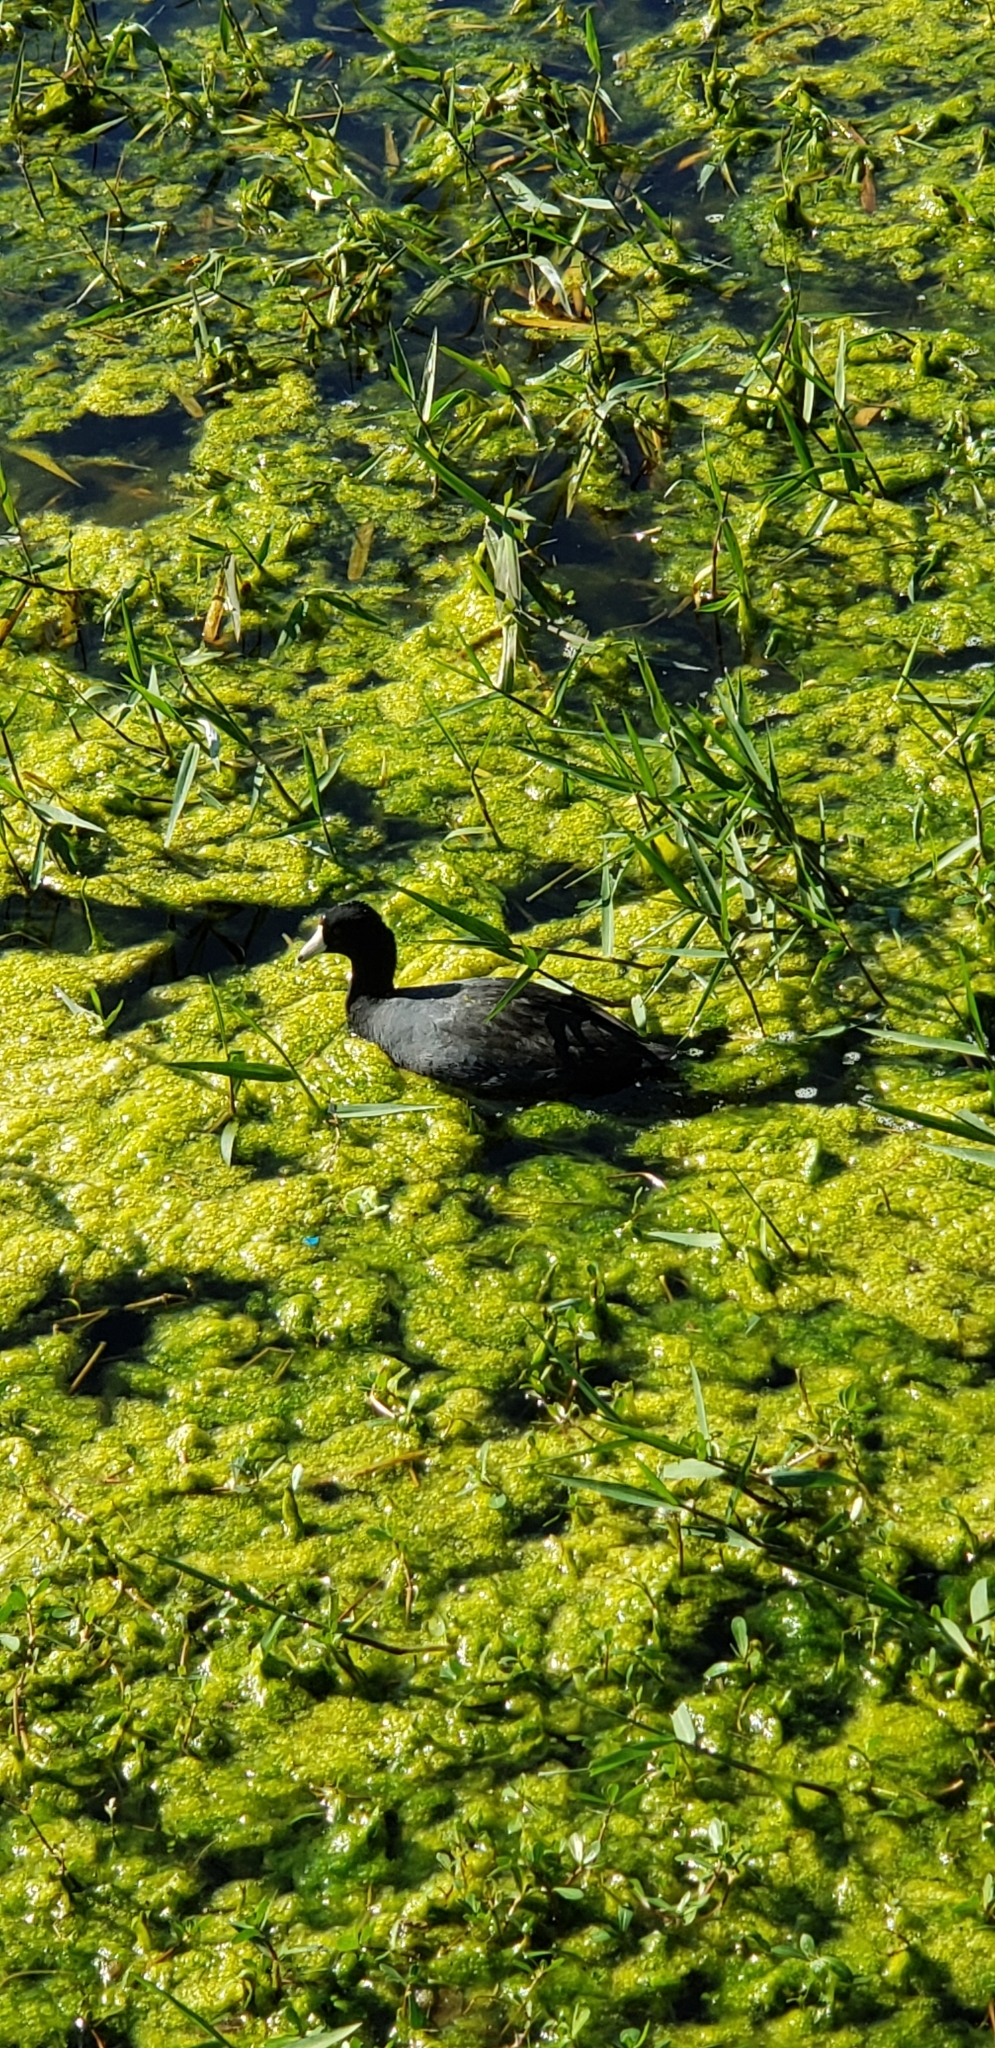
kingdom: Animalia
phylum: Chordata
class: Aves
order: Gruiformes
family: Rallidae
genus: Fulica
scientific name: Fulica americana
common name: American coot
